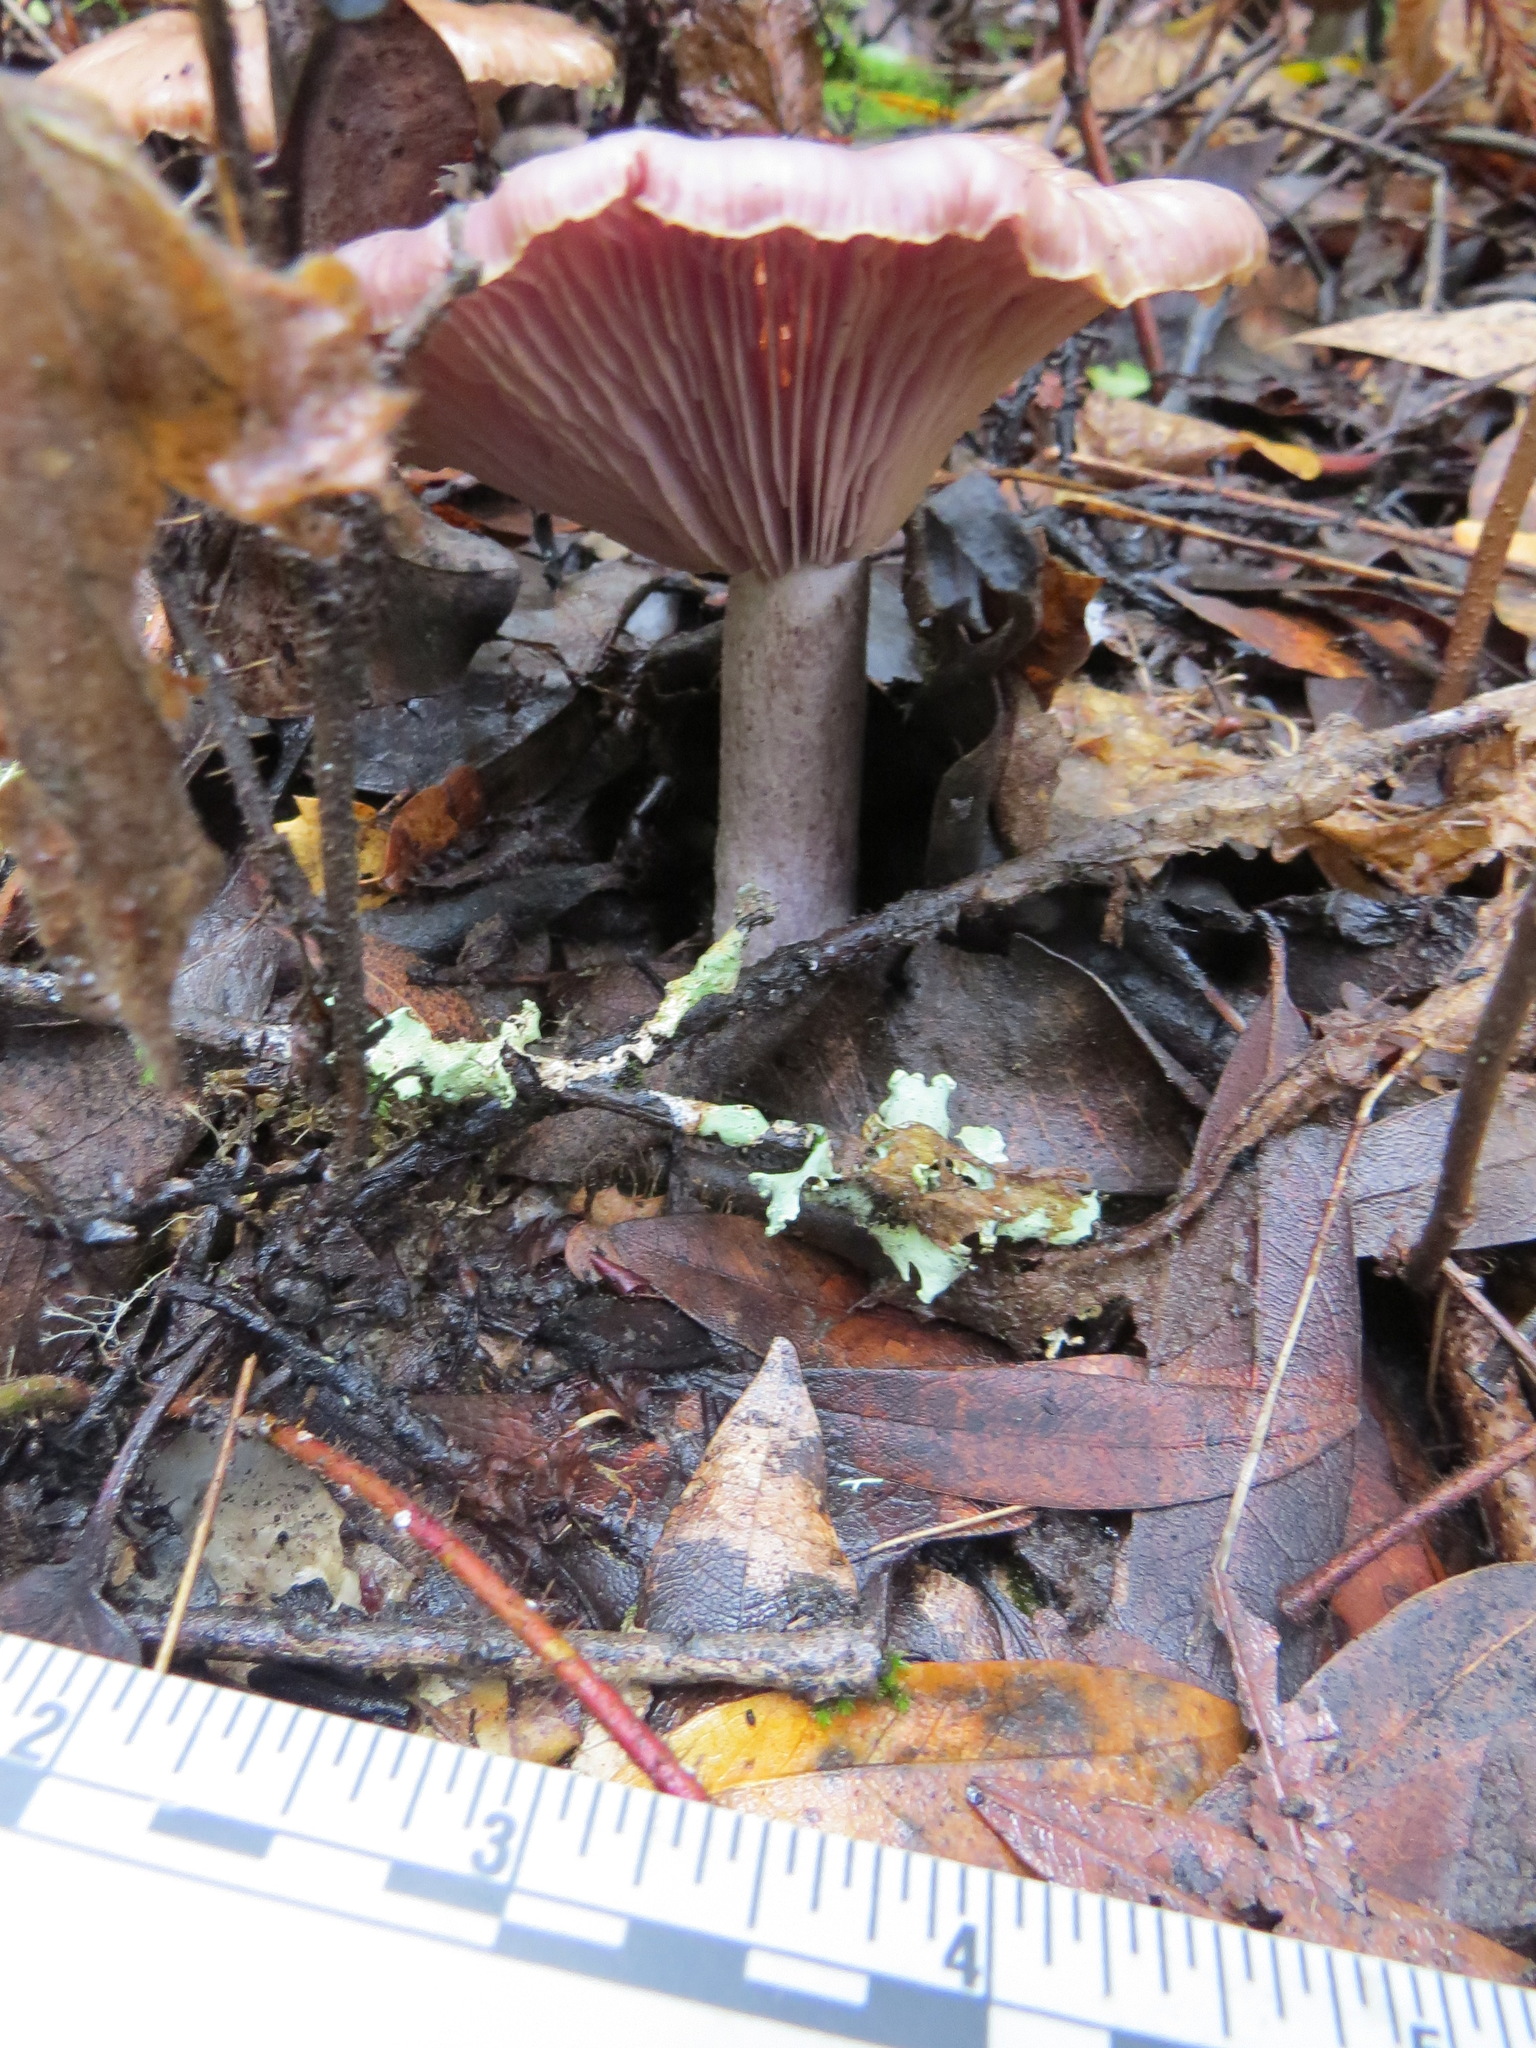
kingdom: Fungi
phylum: Basidiomycota
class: Agaricomycetes
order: Agaricales
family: Tricholomataceae
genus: Collybia
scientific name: Collybia
